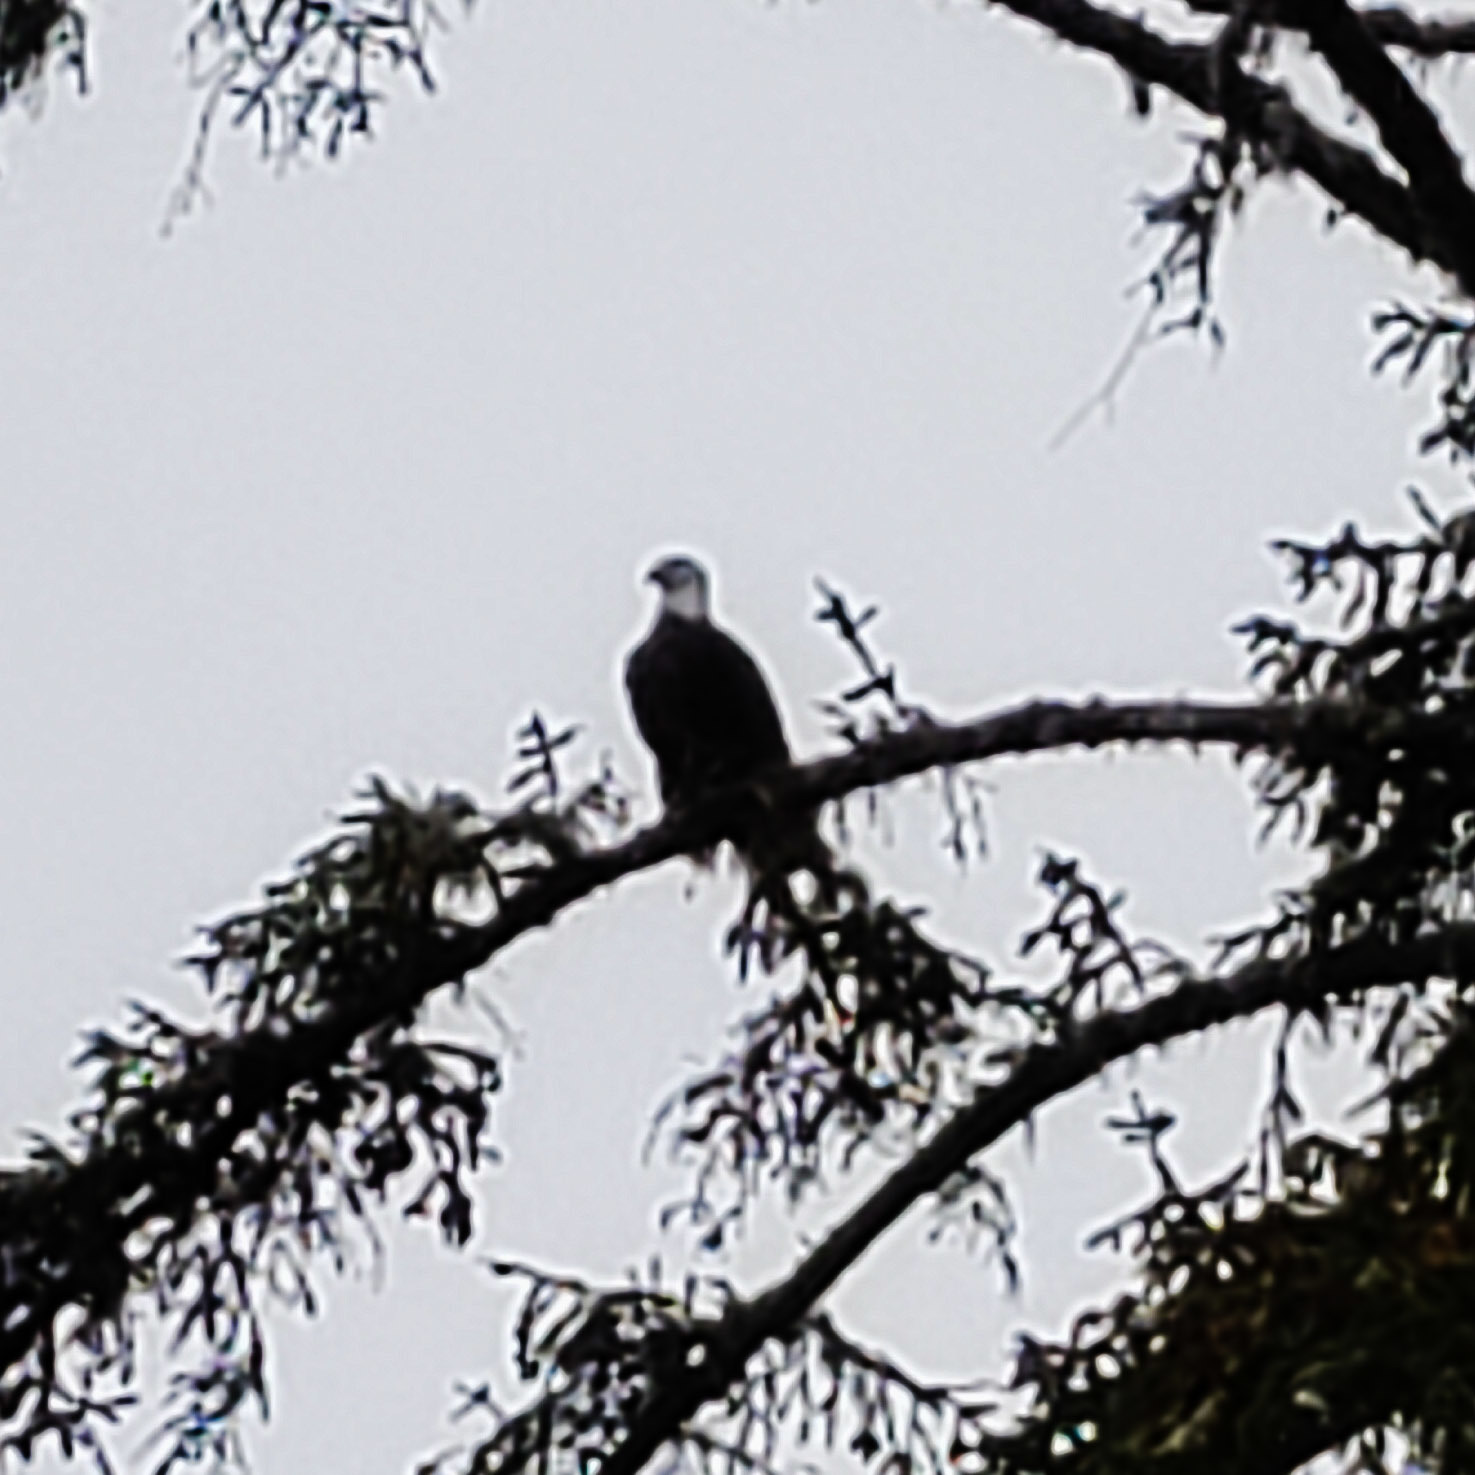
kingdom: Animalia
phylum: Chordata
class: Aves
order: Accipitriformes
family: Accipitridae
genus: Haliaeetus
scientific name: Haliaeetus leucocephalus
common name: Bald eagle
